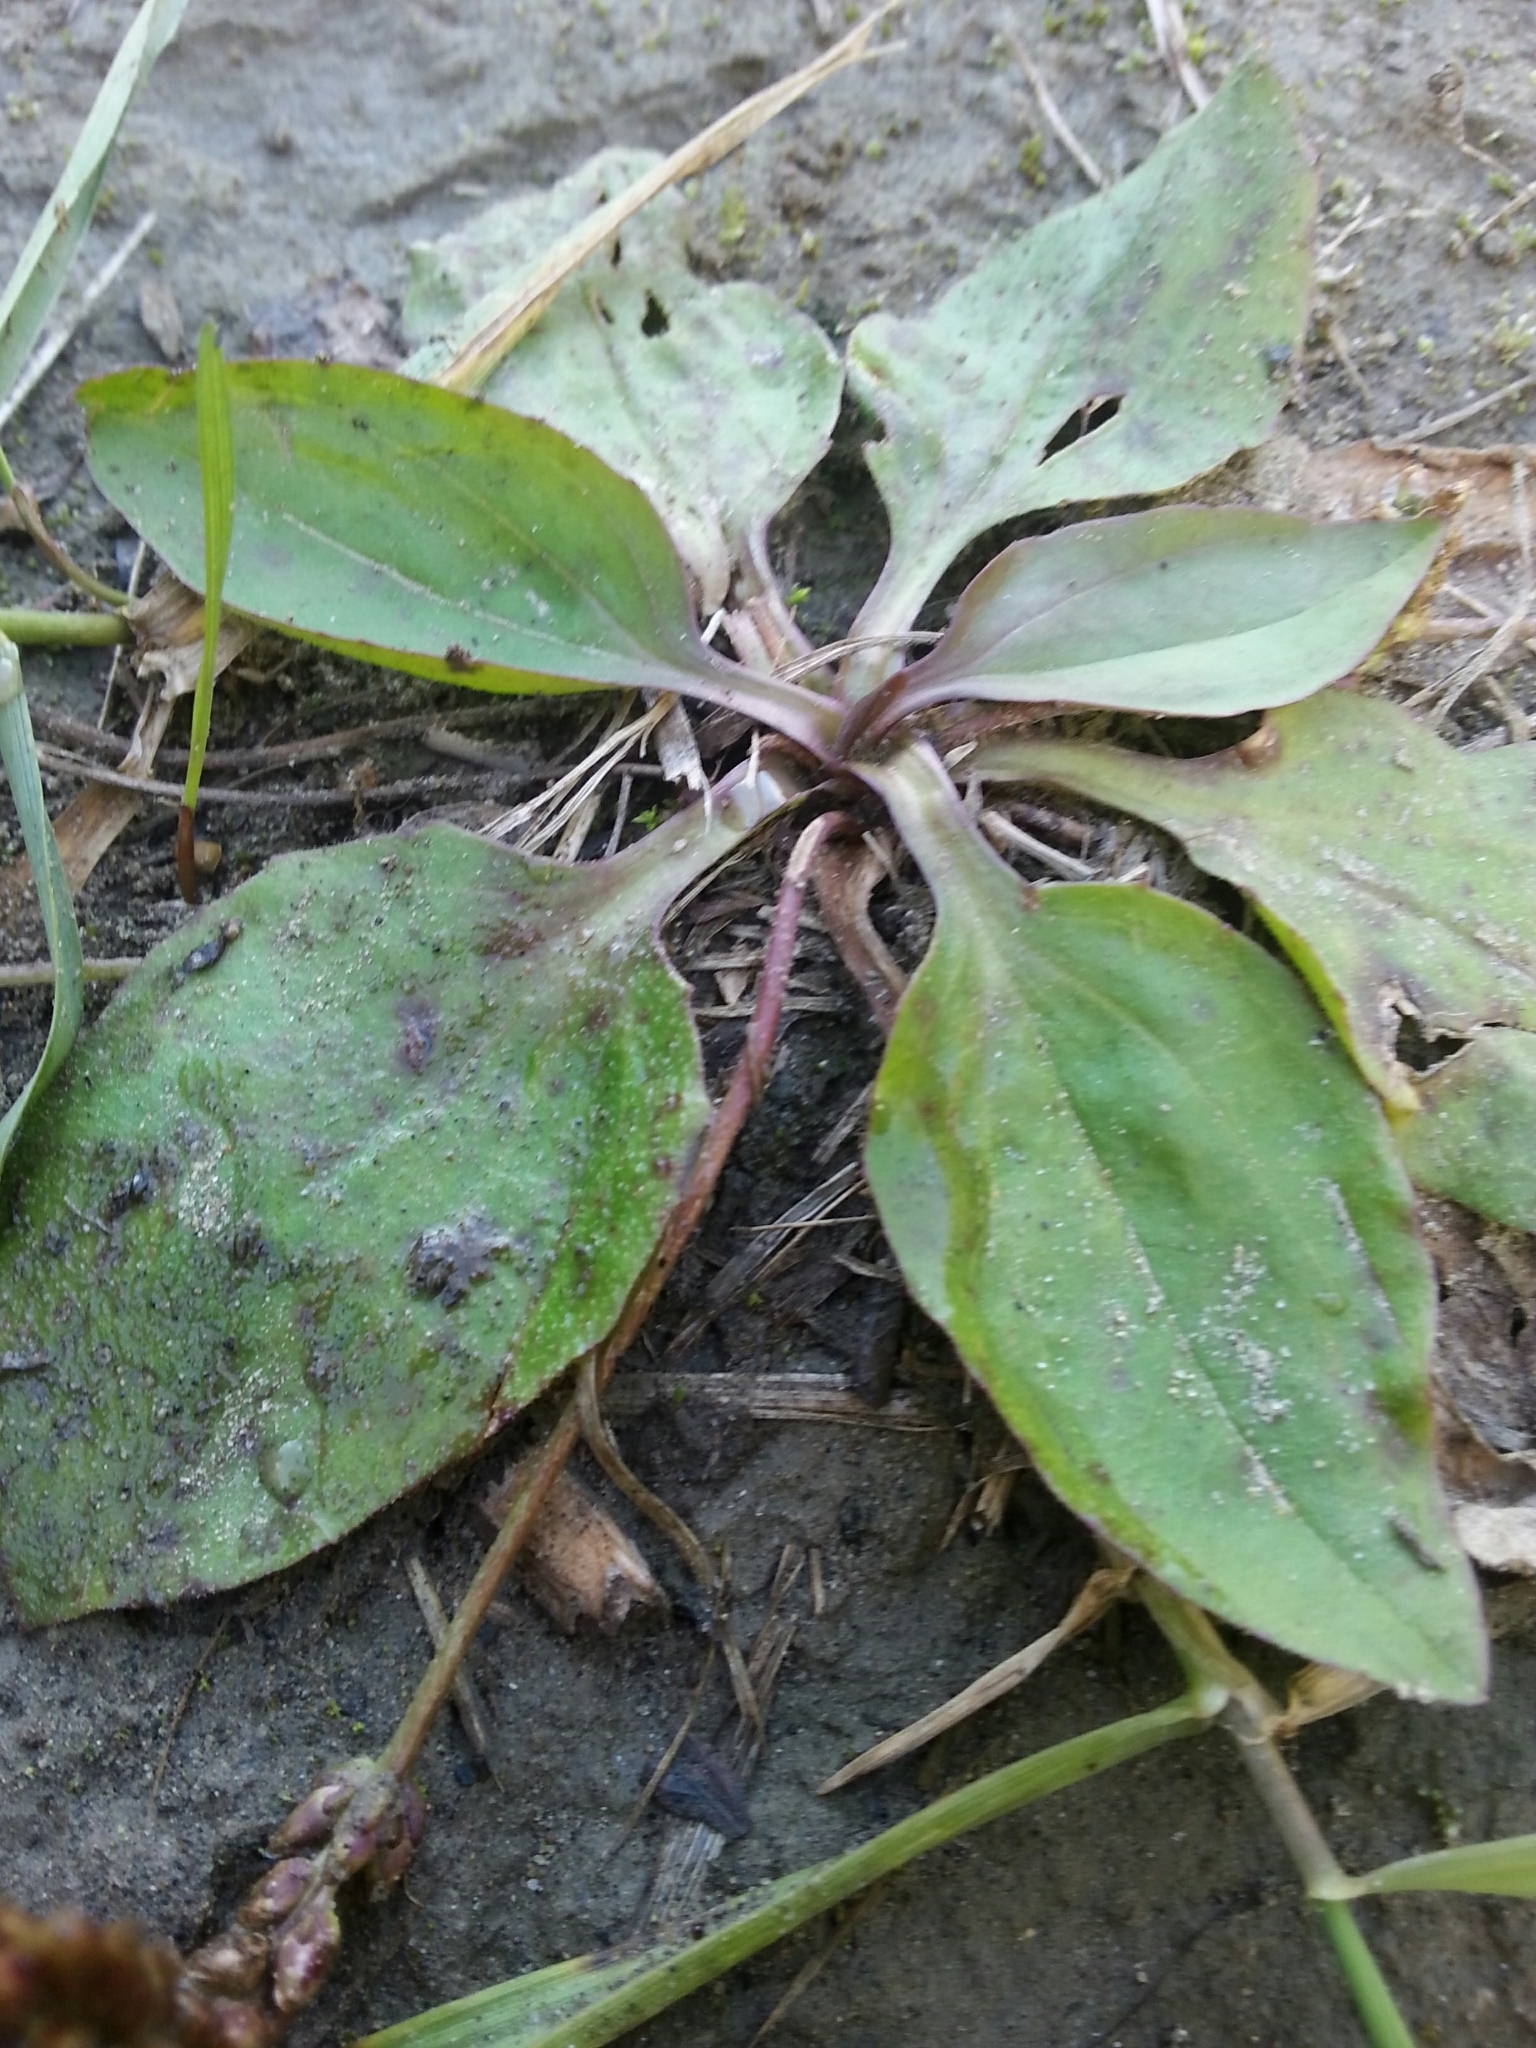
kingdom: Plantae
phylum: Tracheophyta
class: Magnoliopsida
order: Lamiales
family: Plantaginaceae
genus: Plantago
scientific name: Plantago major
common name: Common plantain
